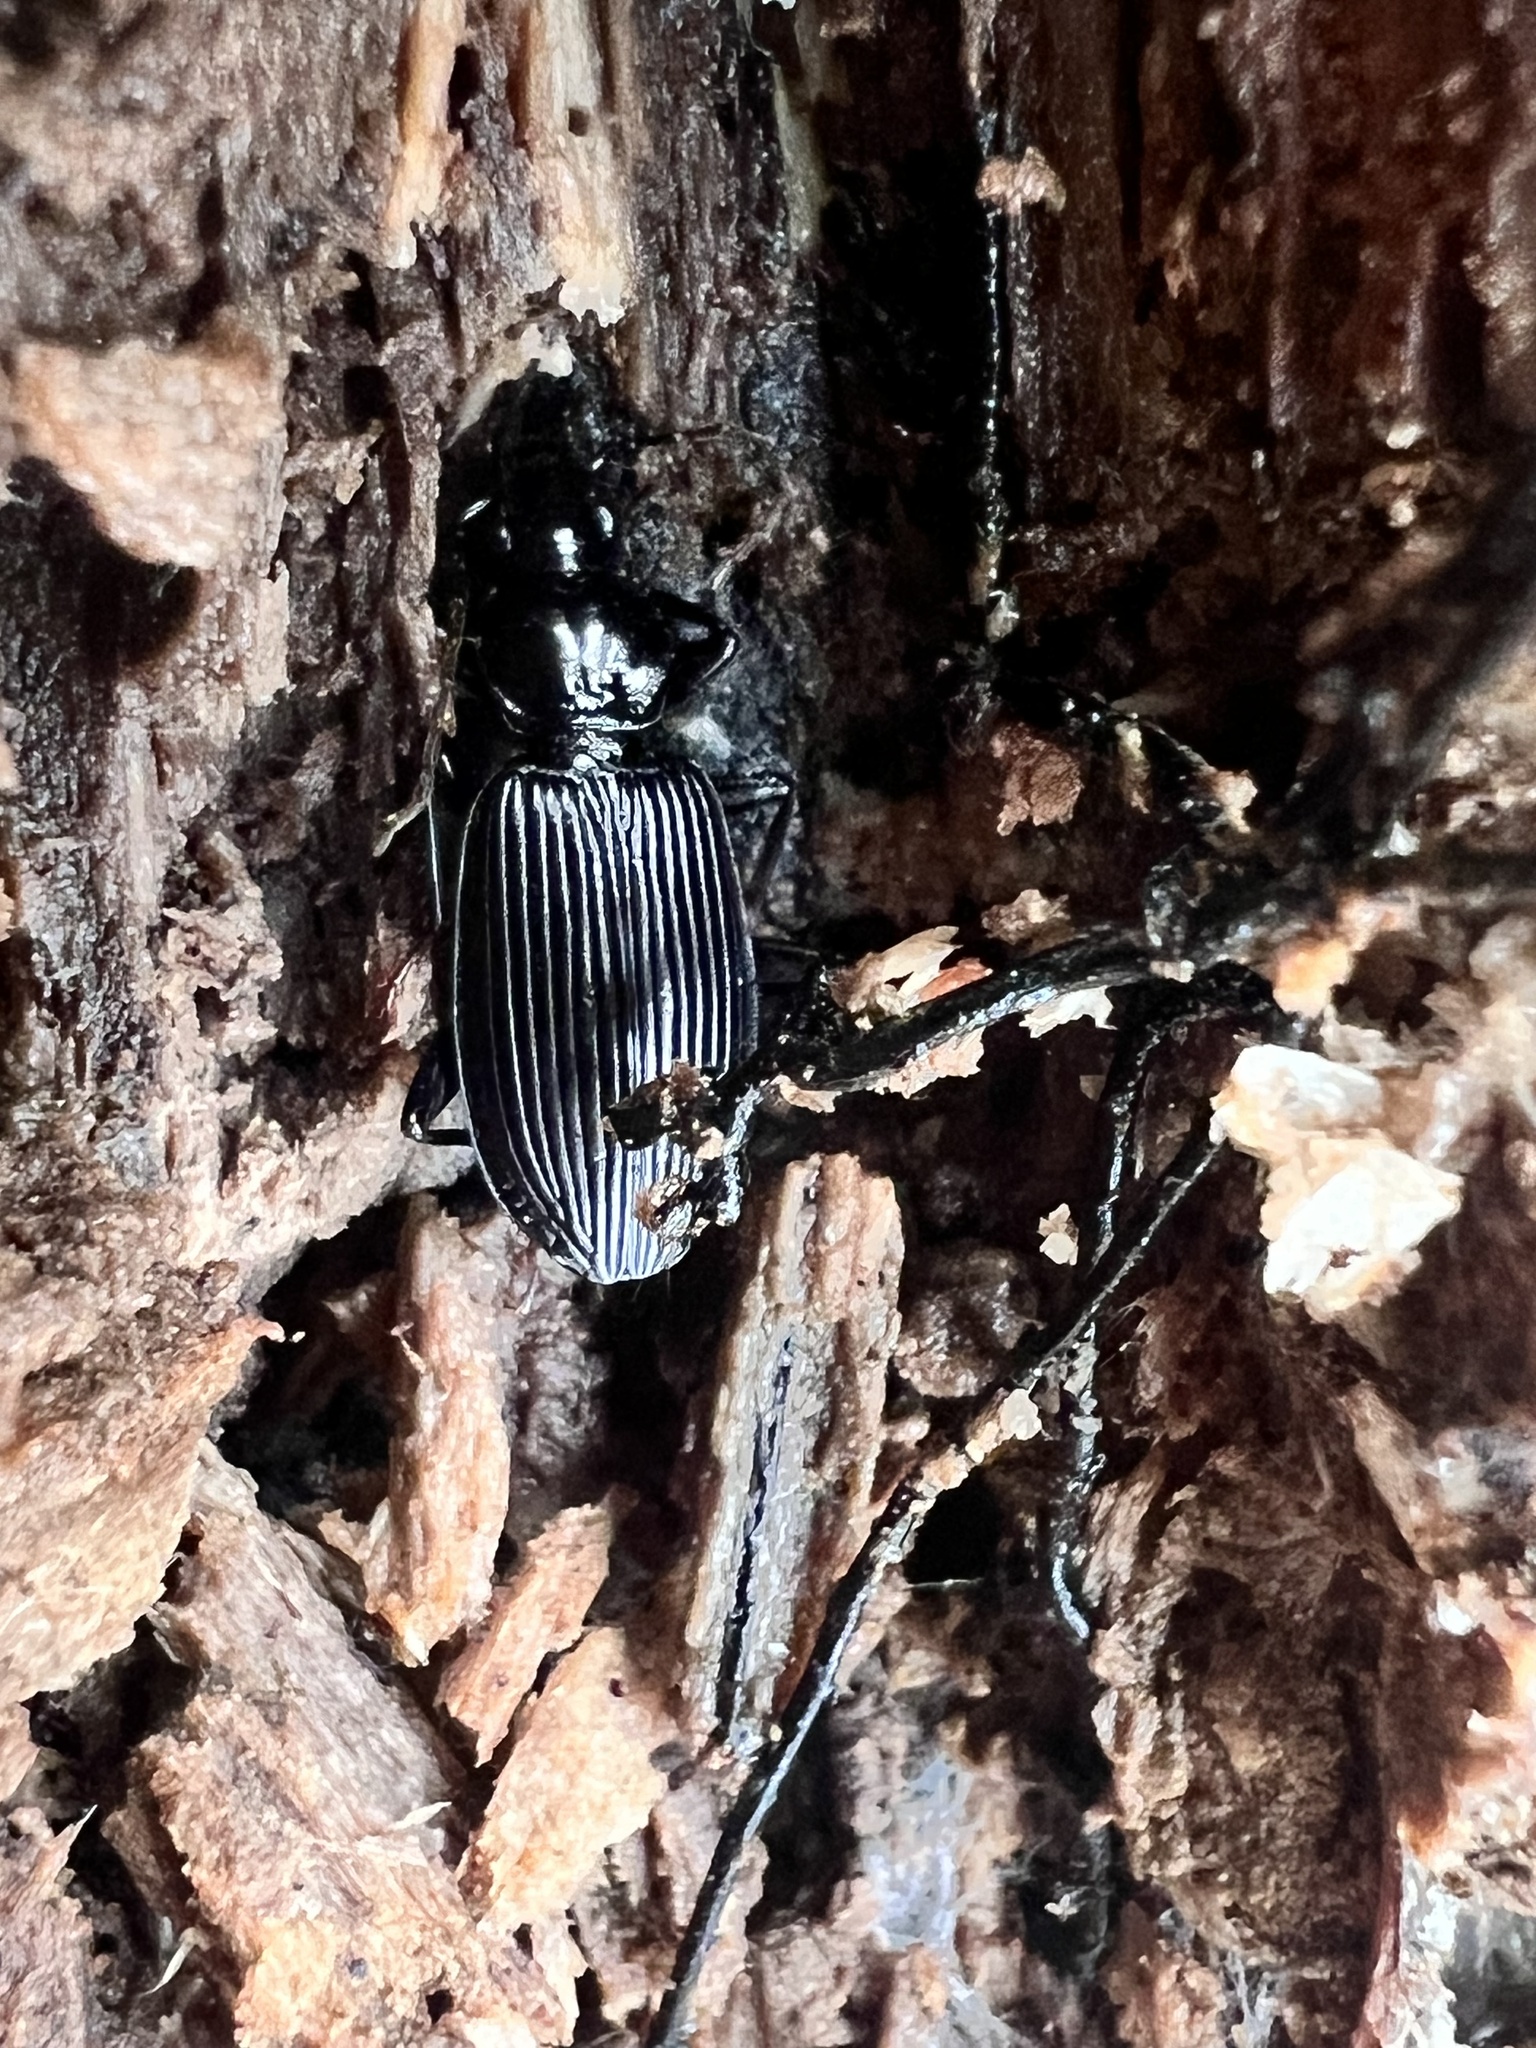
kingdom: Animalia
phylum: Arthropoda
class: Insecta
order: Coleoptera
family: Carabidae
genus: Platynus
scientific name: Platynus decentis
